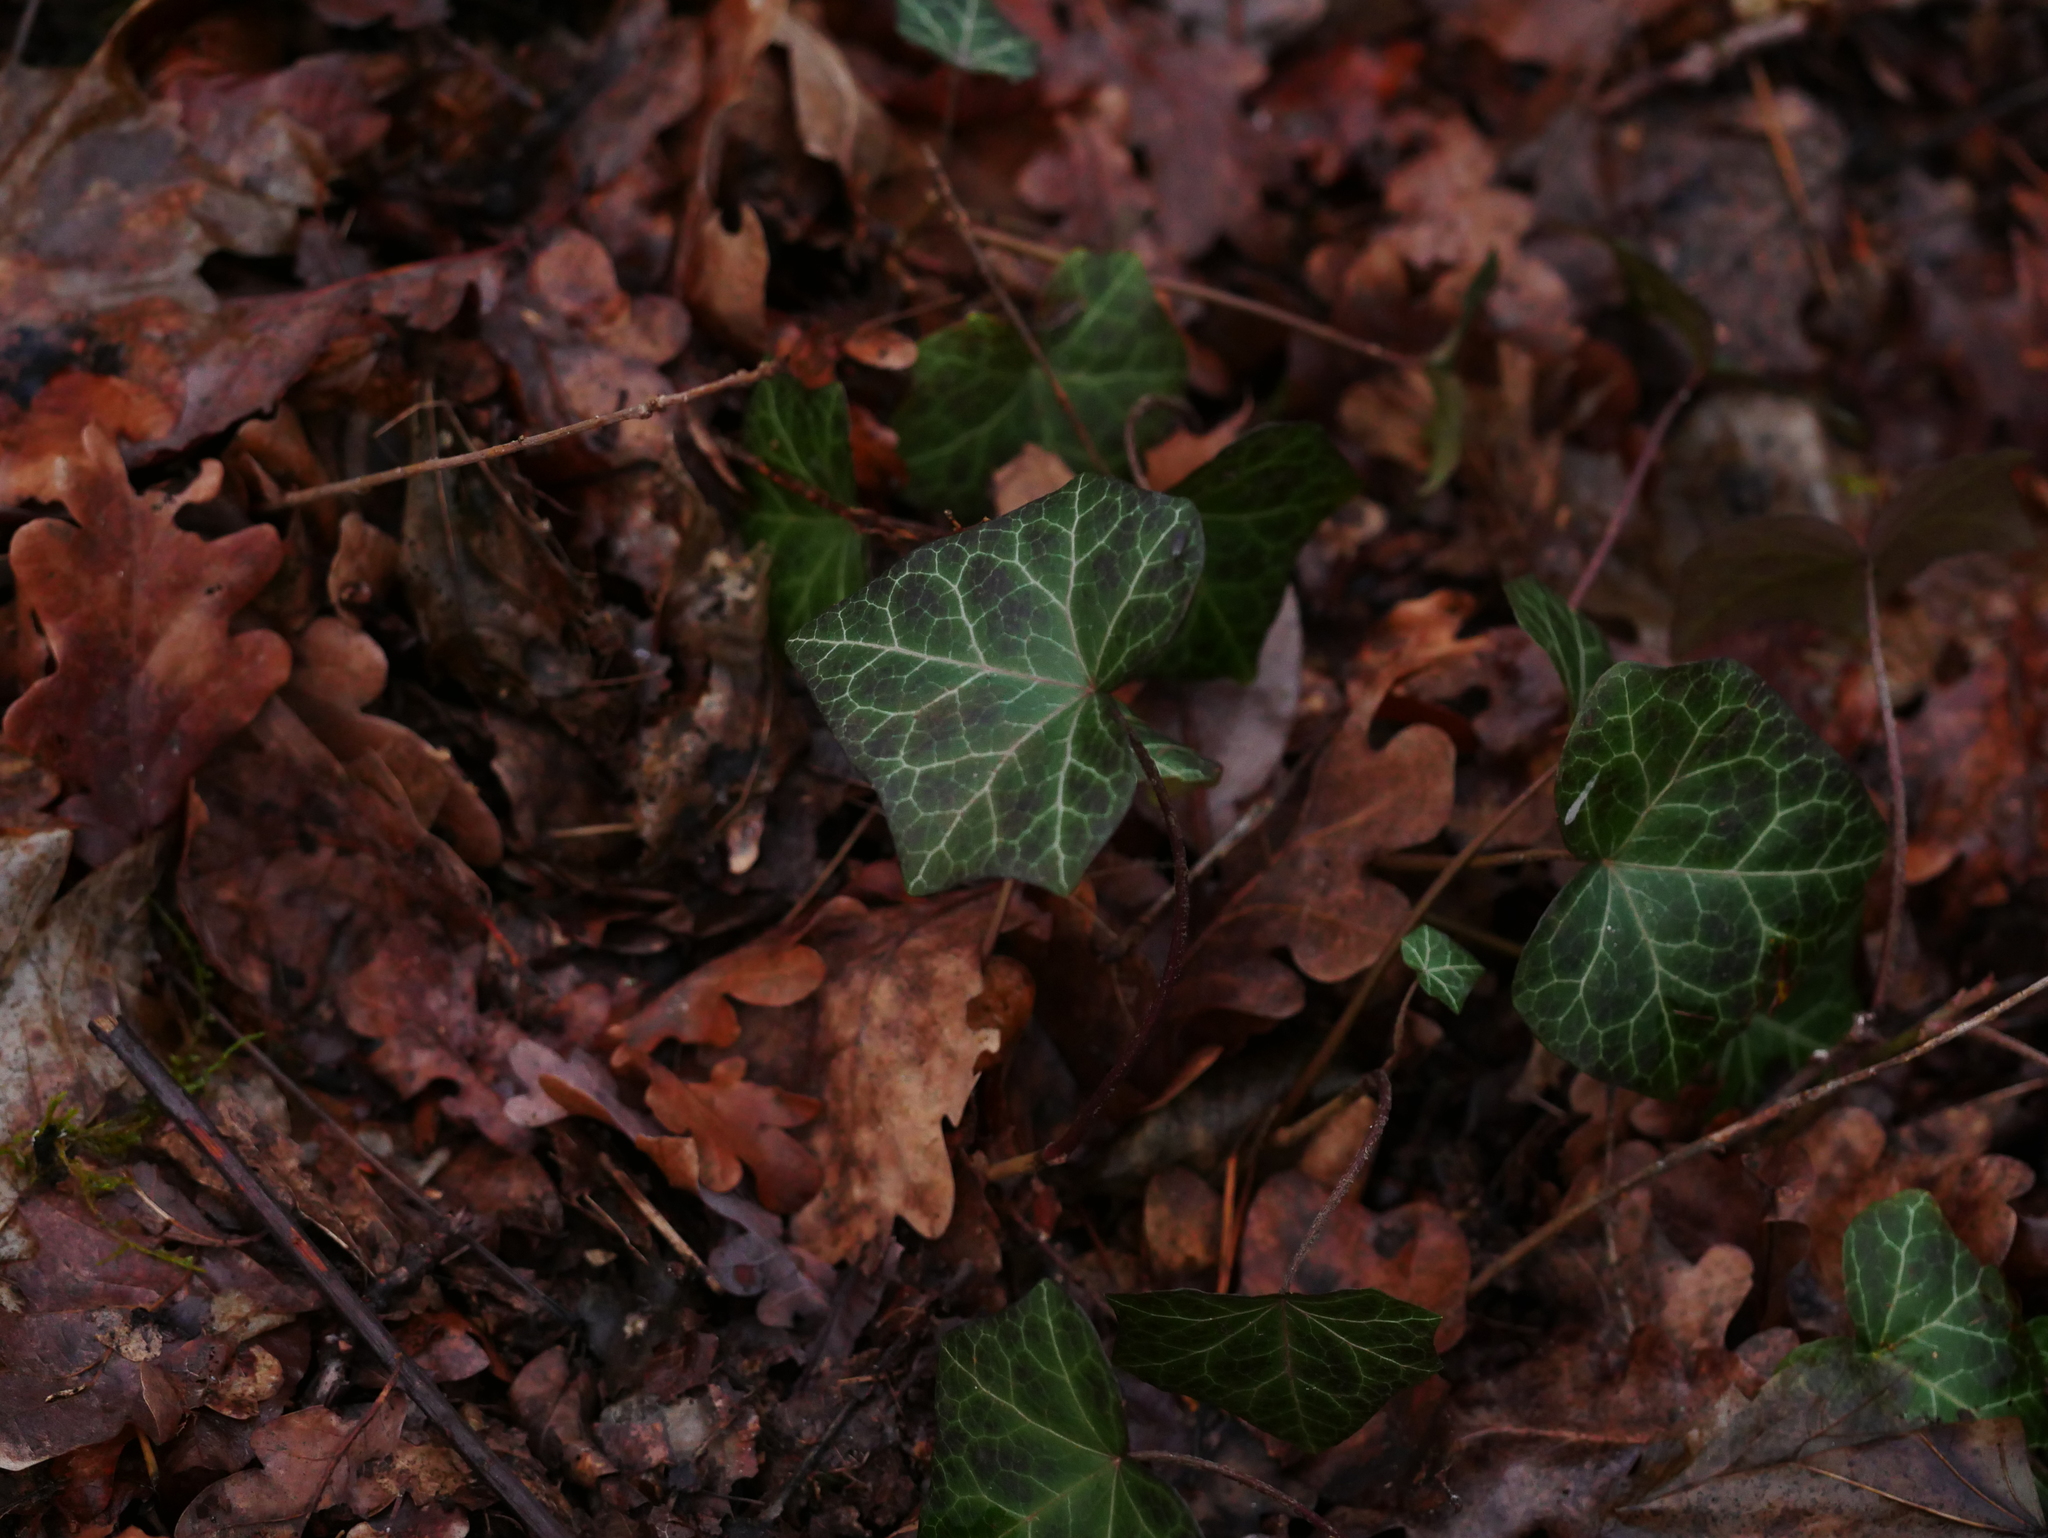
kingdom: Plantae
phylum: Tracheophyta
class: Magnoliopsida
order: Apiales
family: Araliaceae
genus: Hedera
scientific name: Hedera helix
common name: Ivy
